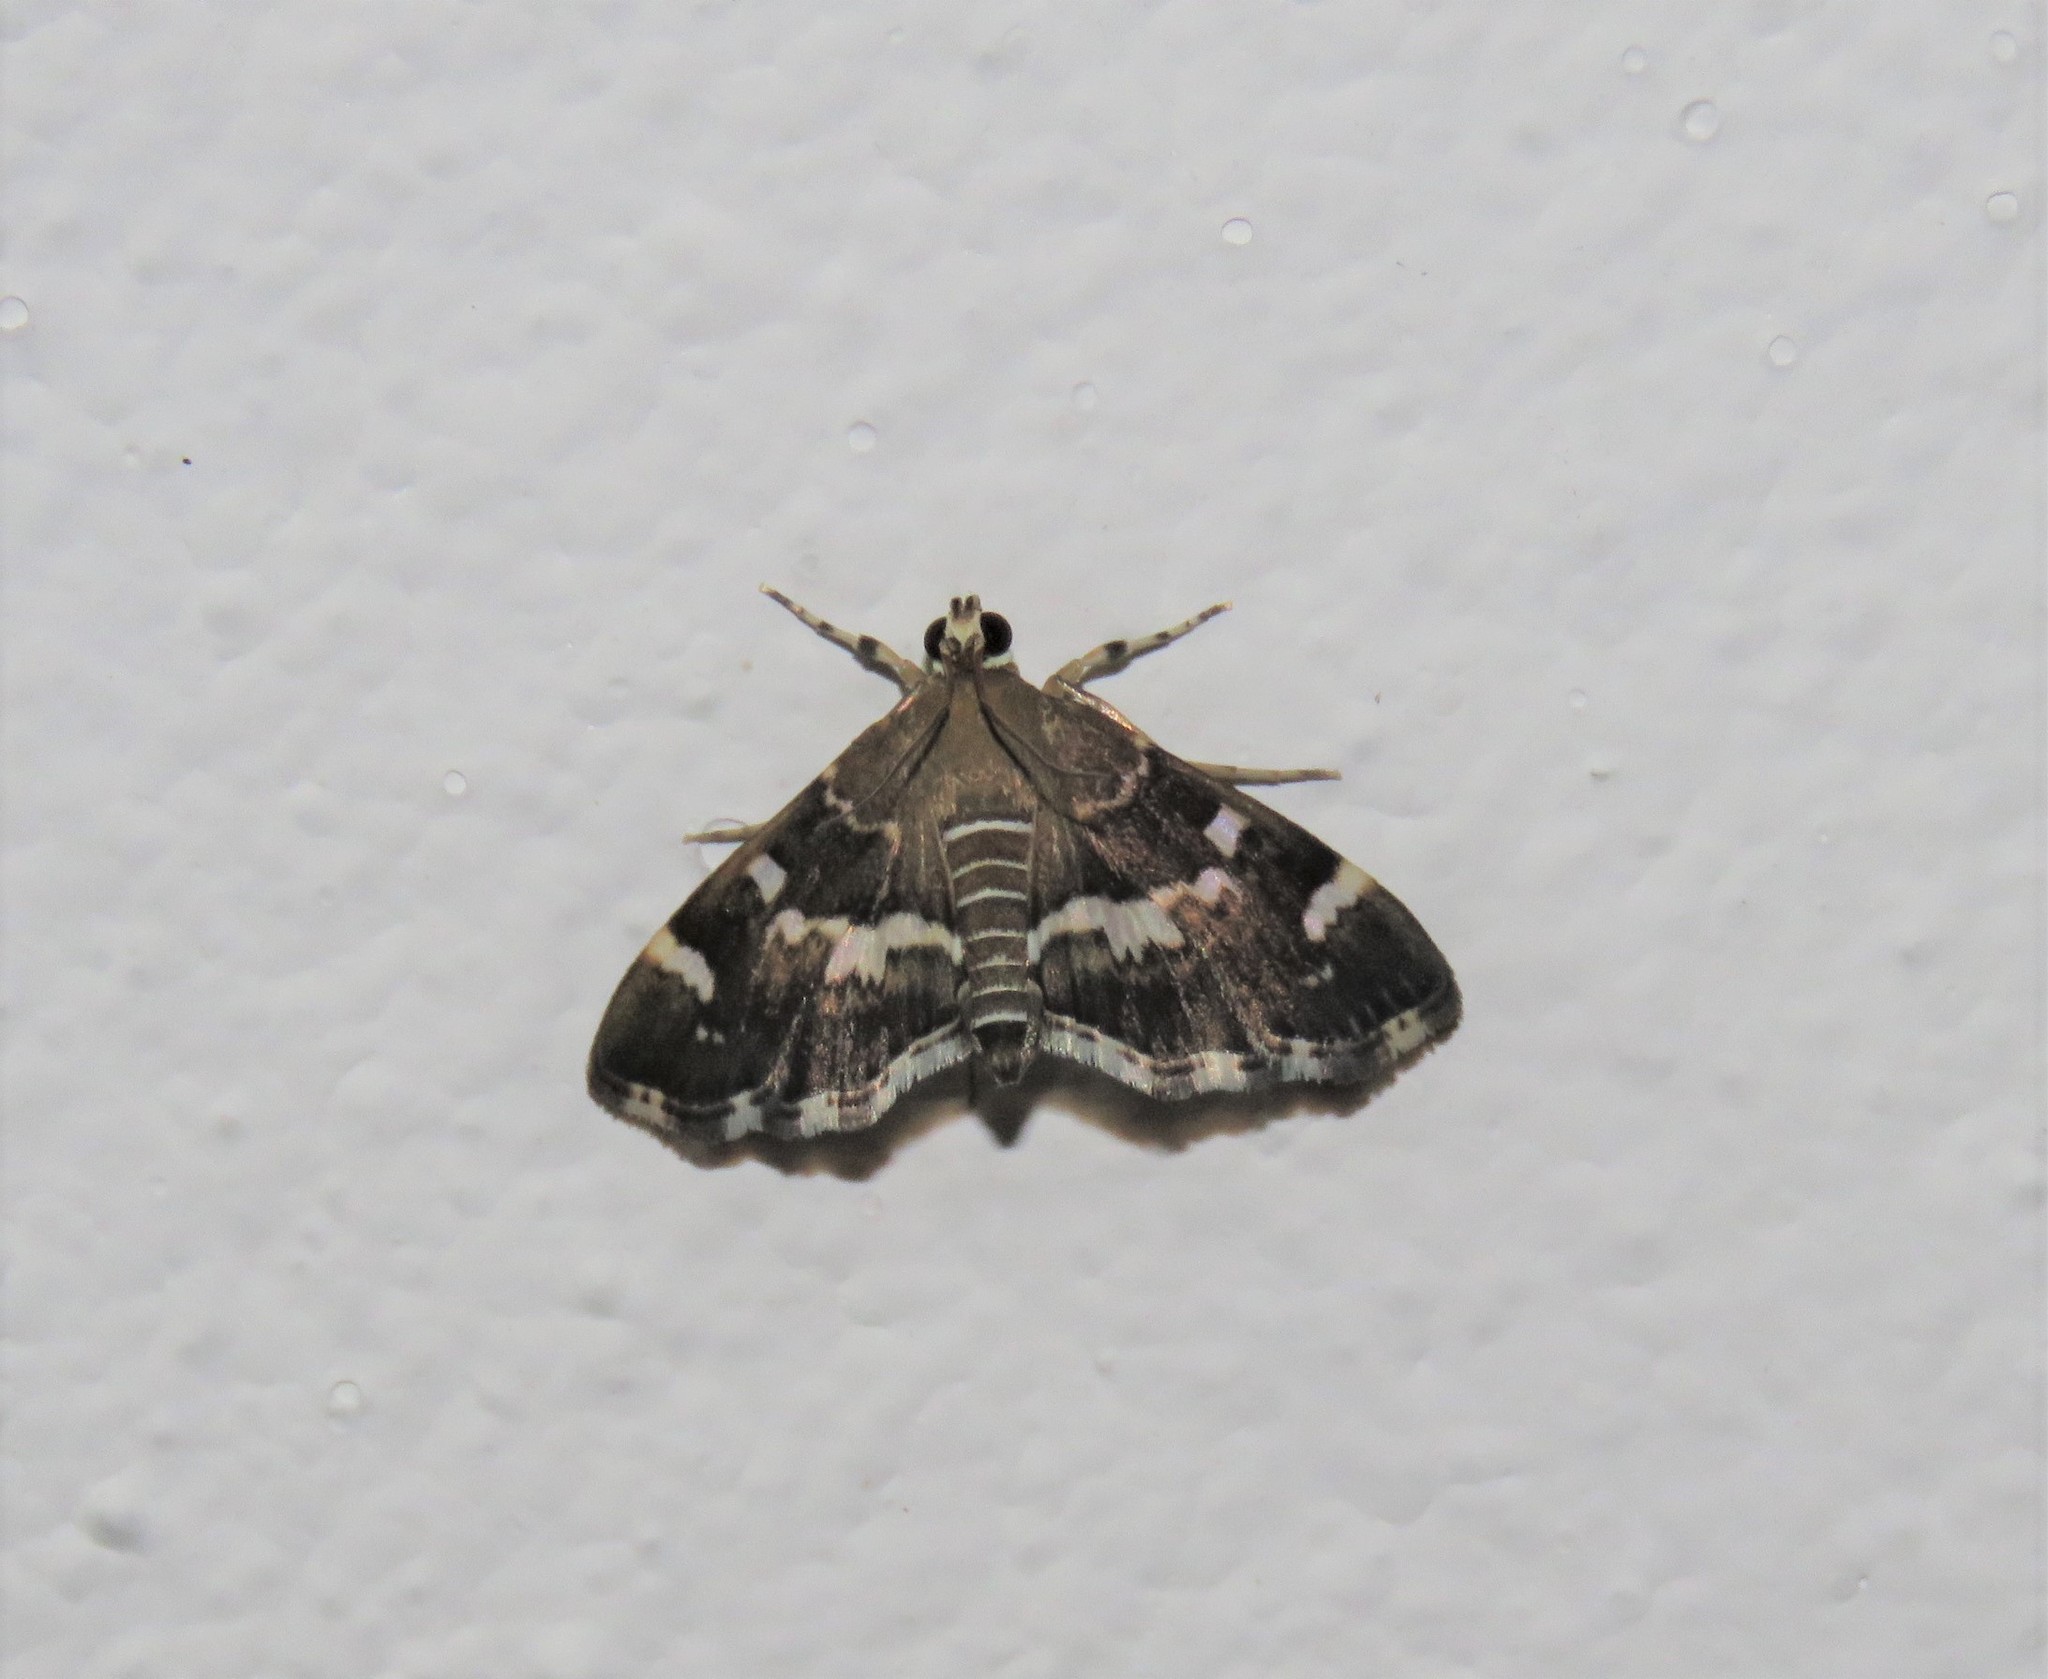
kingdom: Animalia
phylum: Arthropoda
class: Insecta
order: Lepidoptera
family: Crambidae
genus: Hymenia
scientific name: Hymenia perspectalis
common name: Spotted beet webworm
